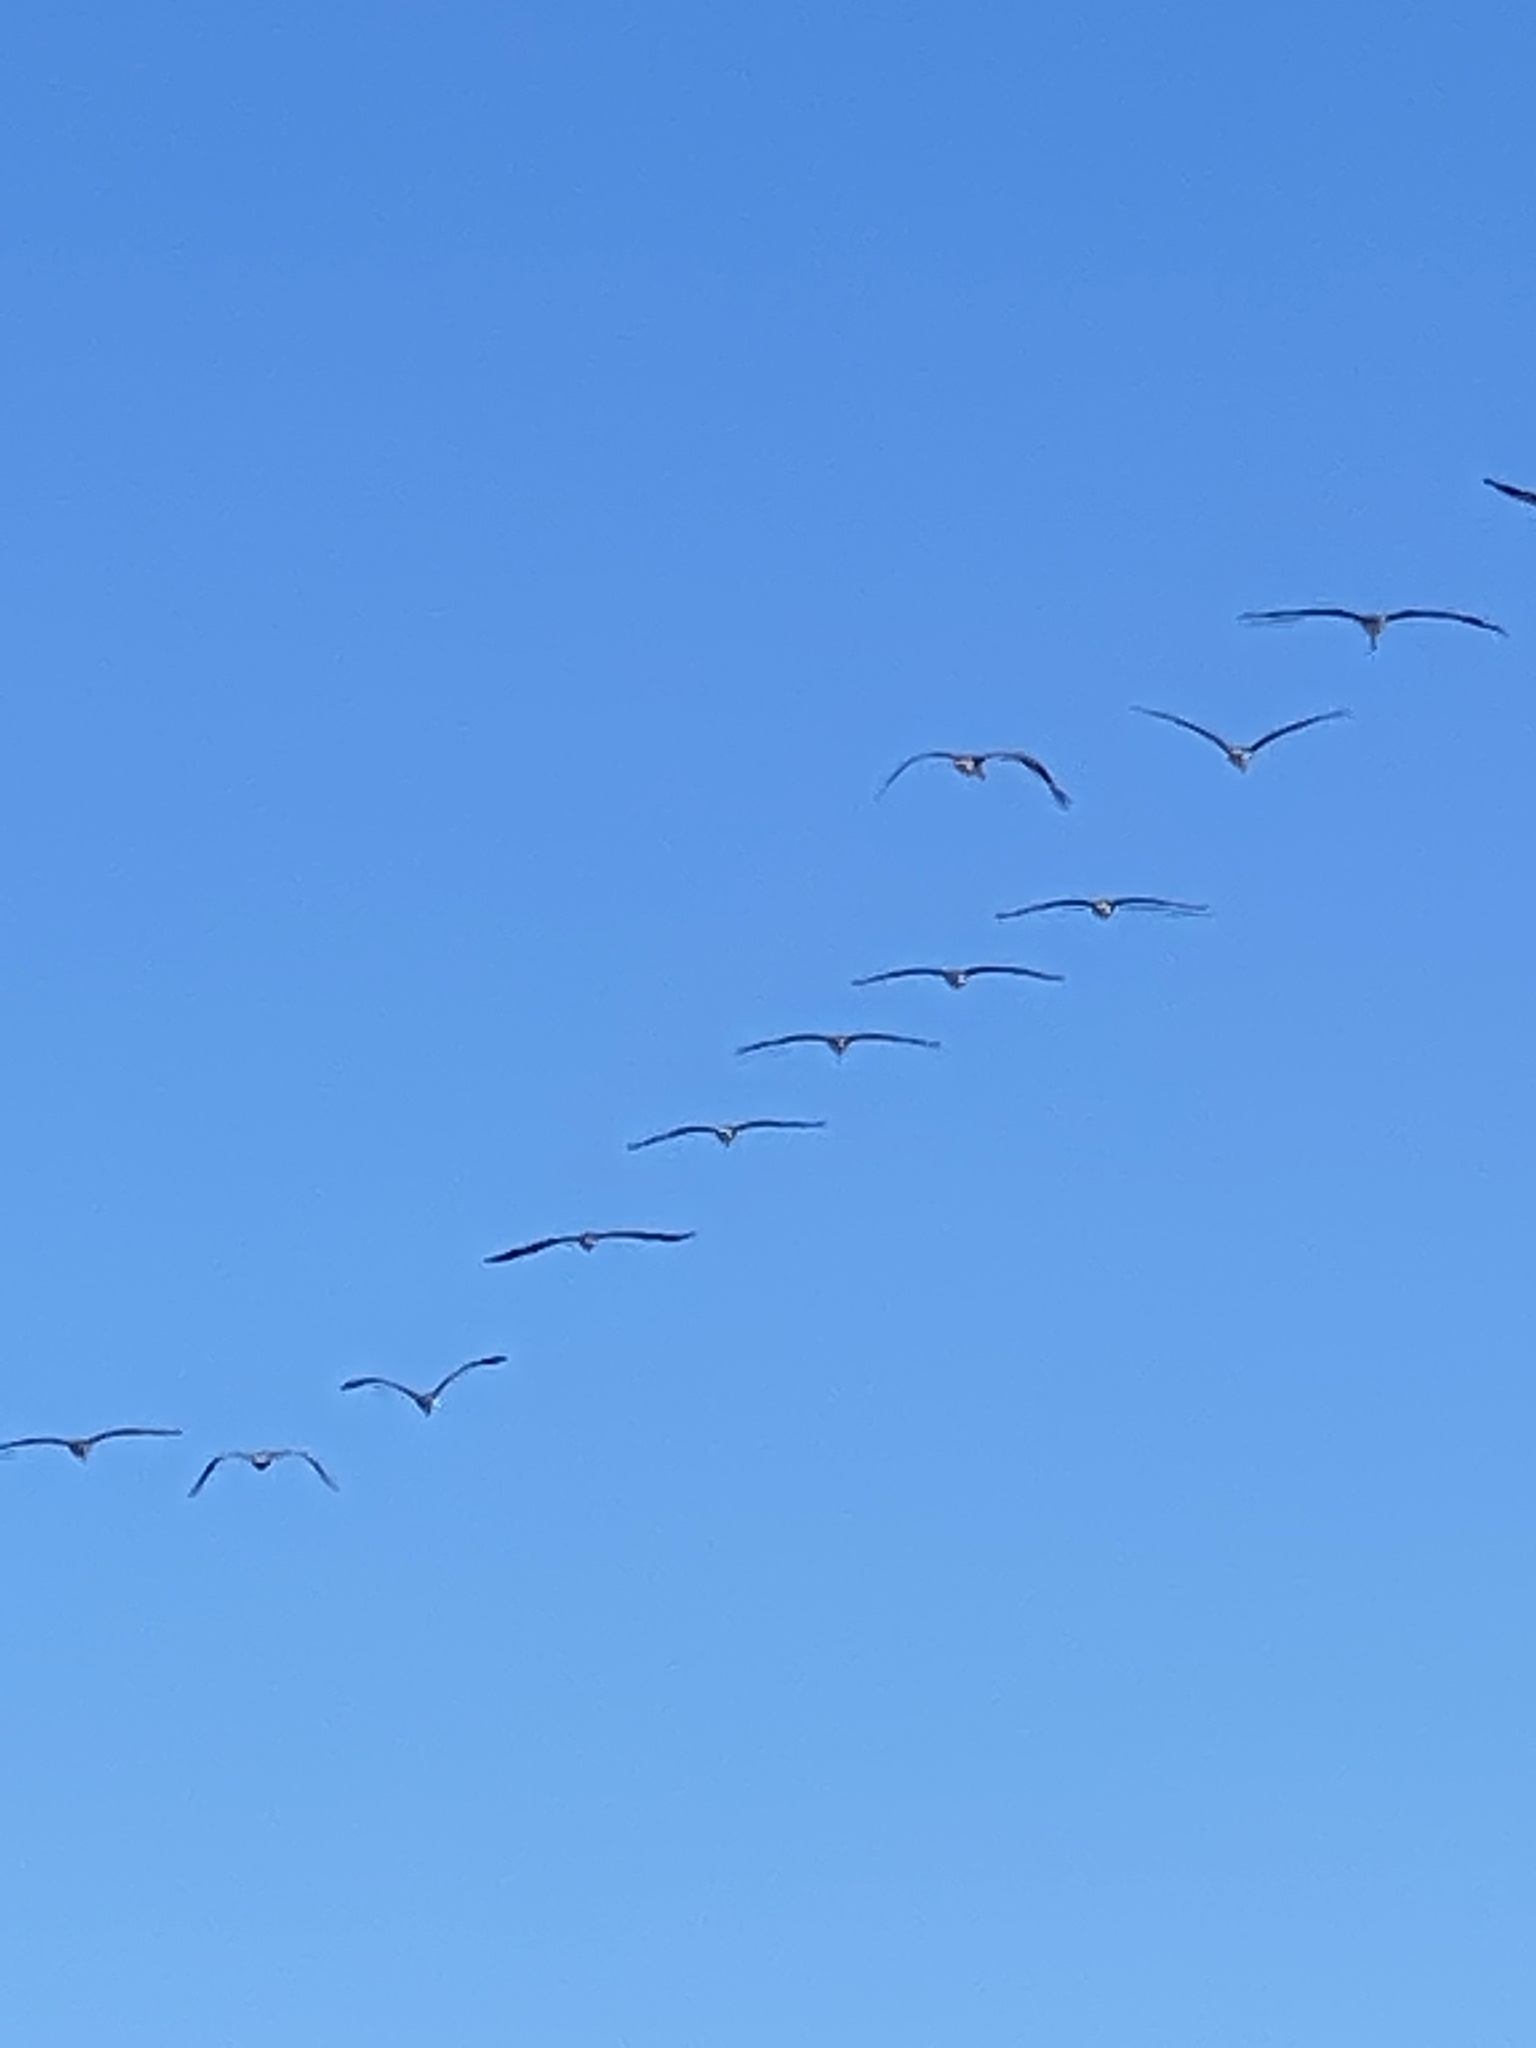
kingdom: Animalia
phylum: Chordata
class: Aves
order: Pelecaniformes
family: Pelecanidae
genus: Pelecanus
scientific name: Pelecanus occidentalis
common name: Brown pelican
